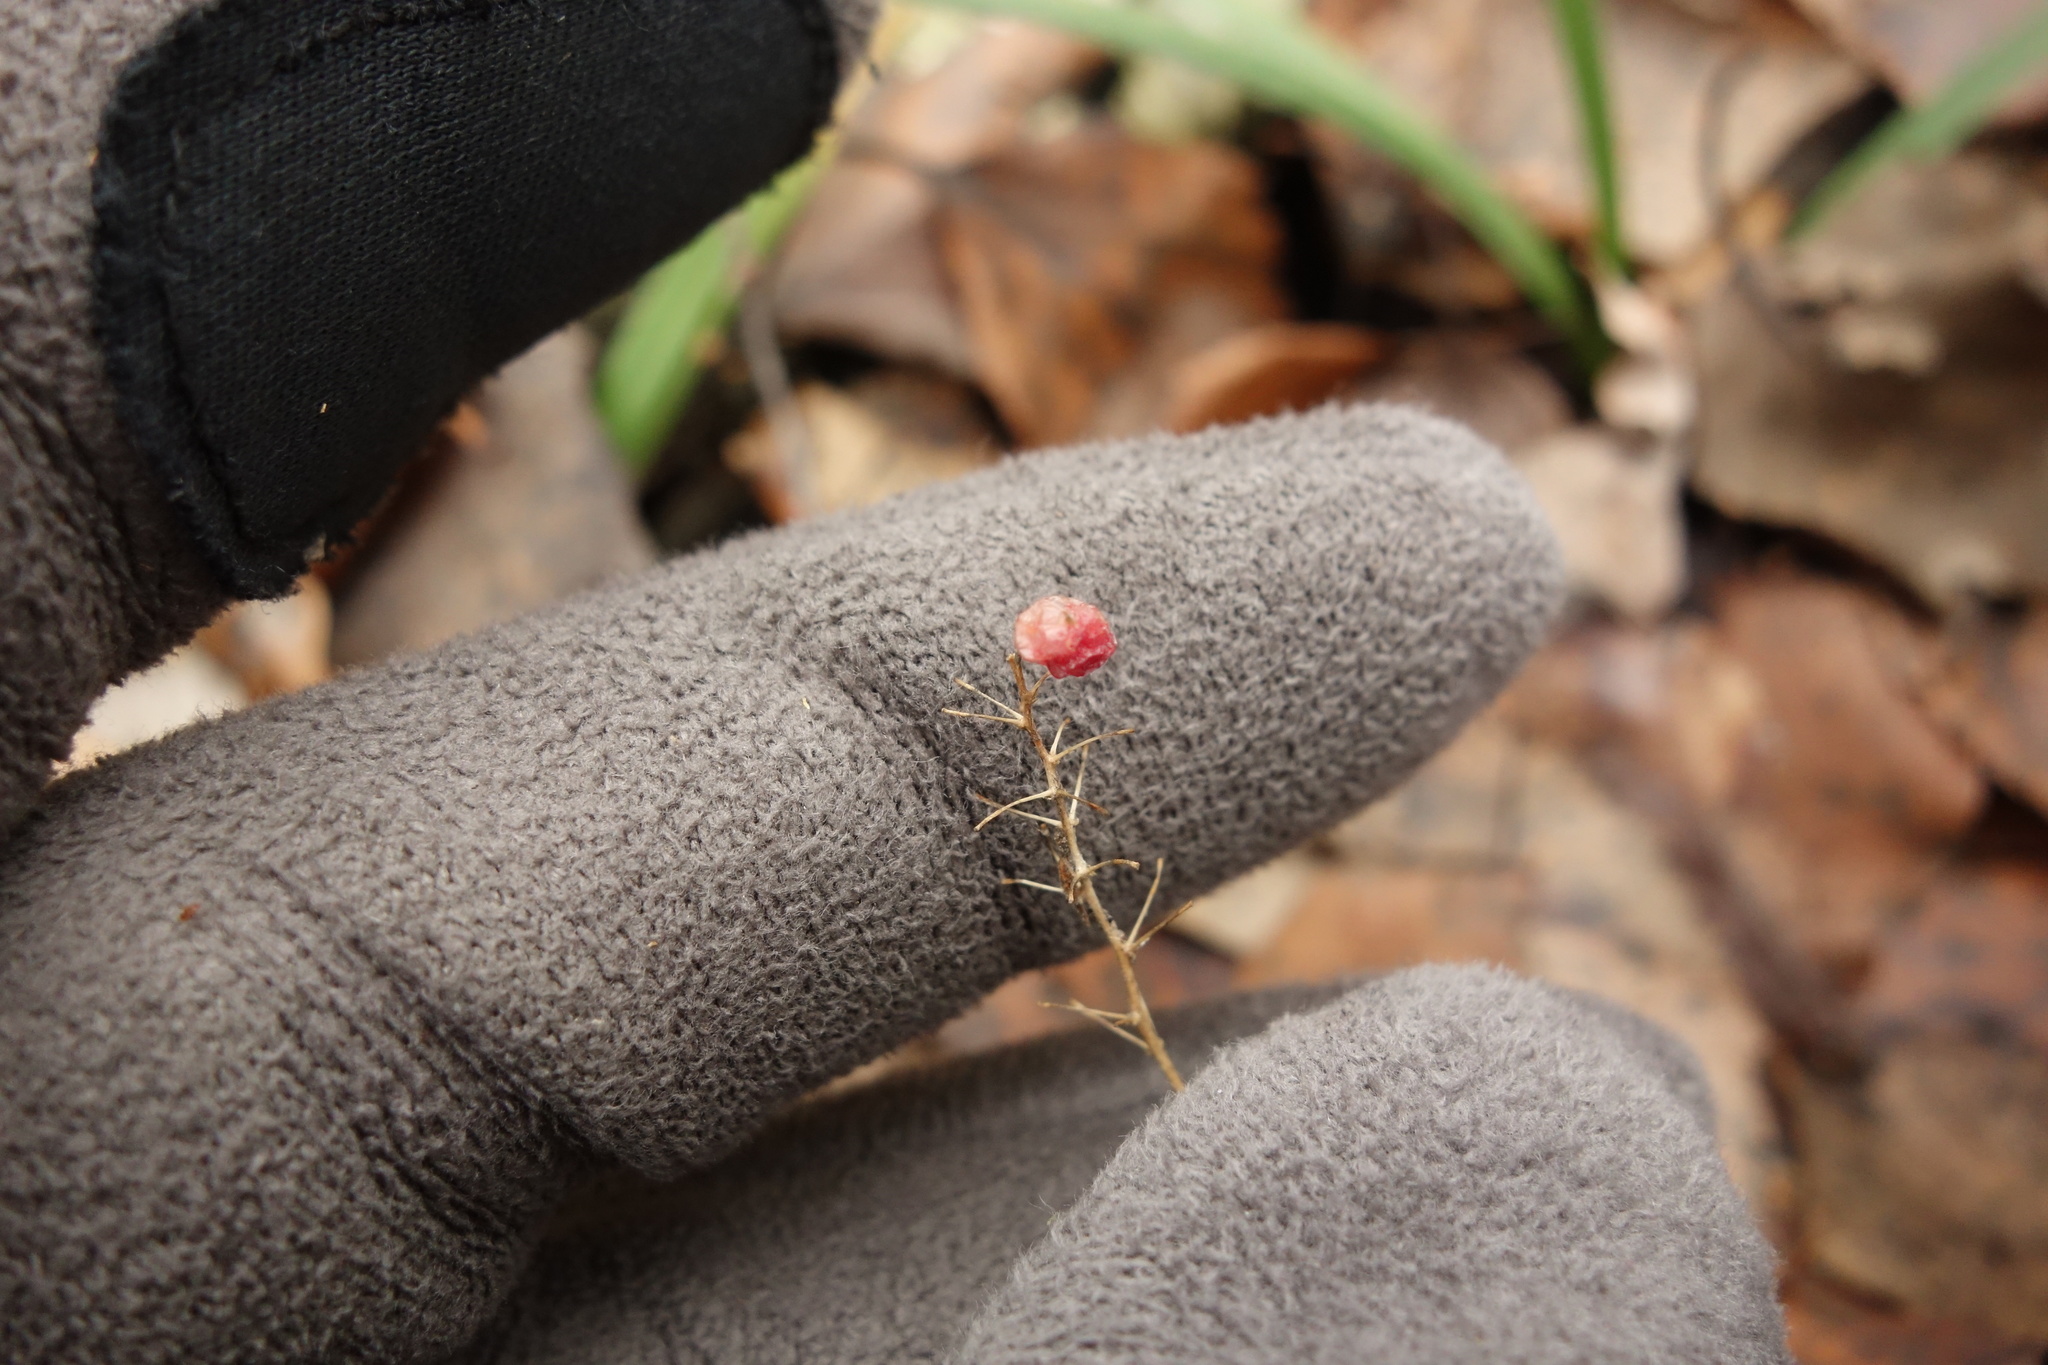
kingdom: Plantae
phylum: Tracheophyta
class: Liliopsida
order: Asparagales
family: Asparagaceae
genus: Maianthemum
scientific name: Maianthemum bifolium
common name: May lily
